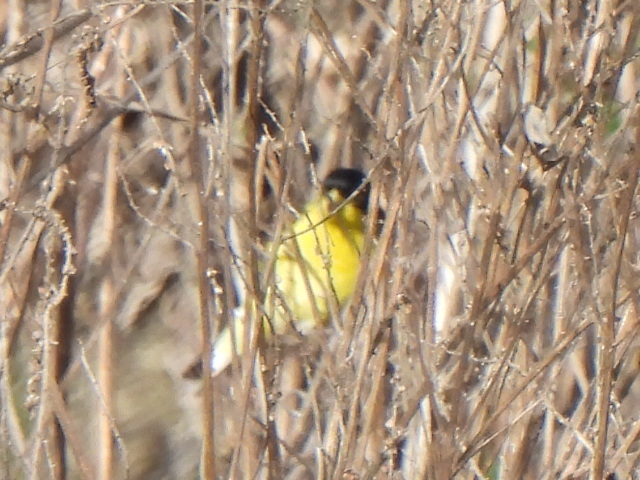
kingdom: Animalia
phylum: Chordata
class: Aves
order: Passeriformes
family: Fringillidae
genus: Spinus
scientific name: Spinus psaltria
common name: Lesser goldfinch
